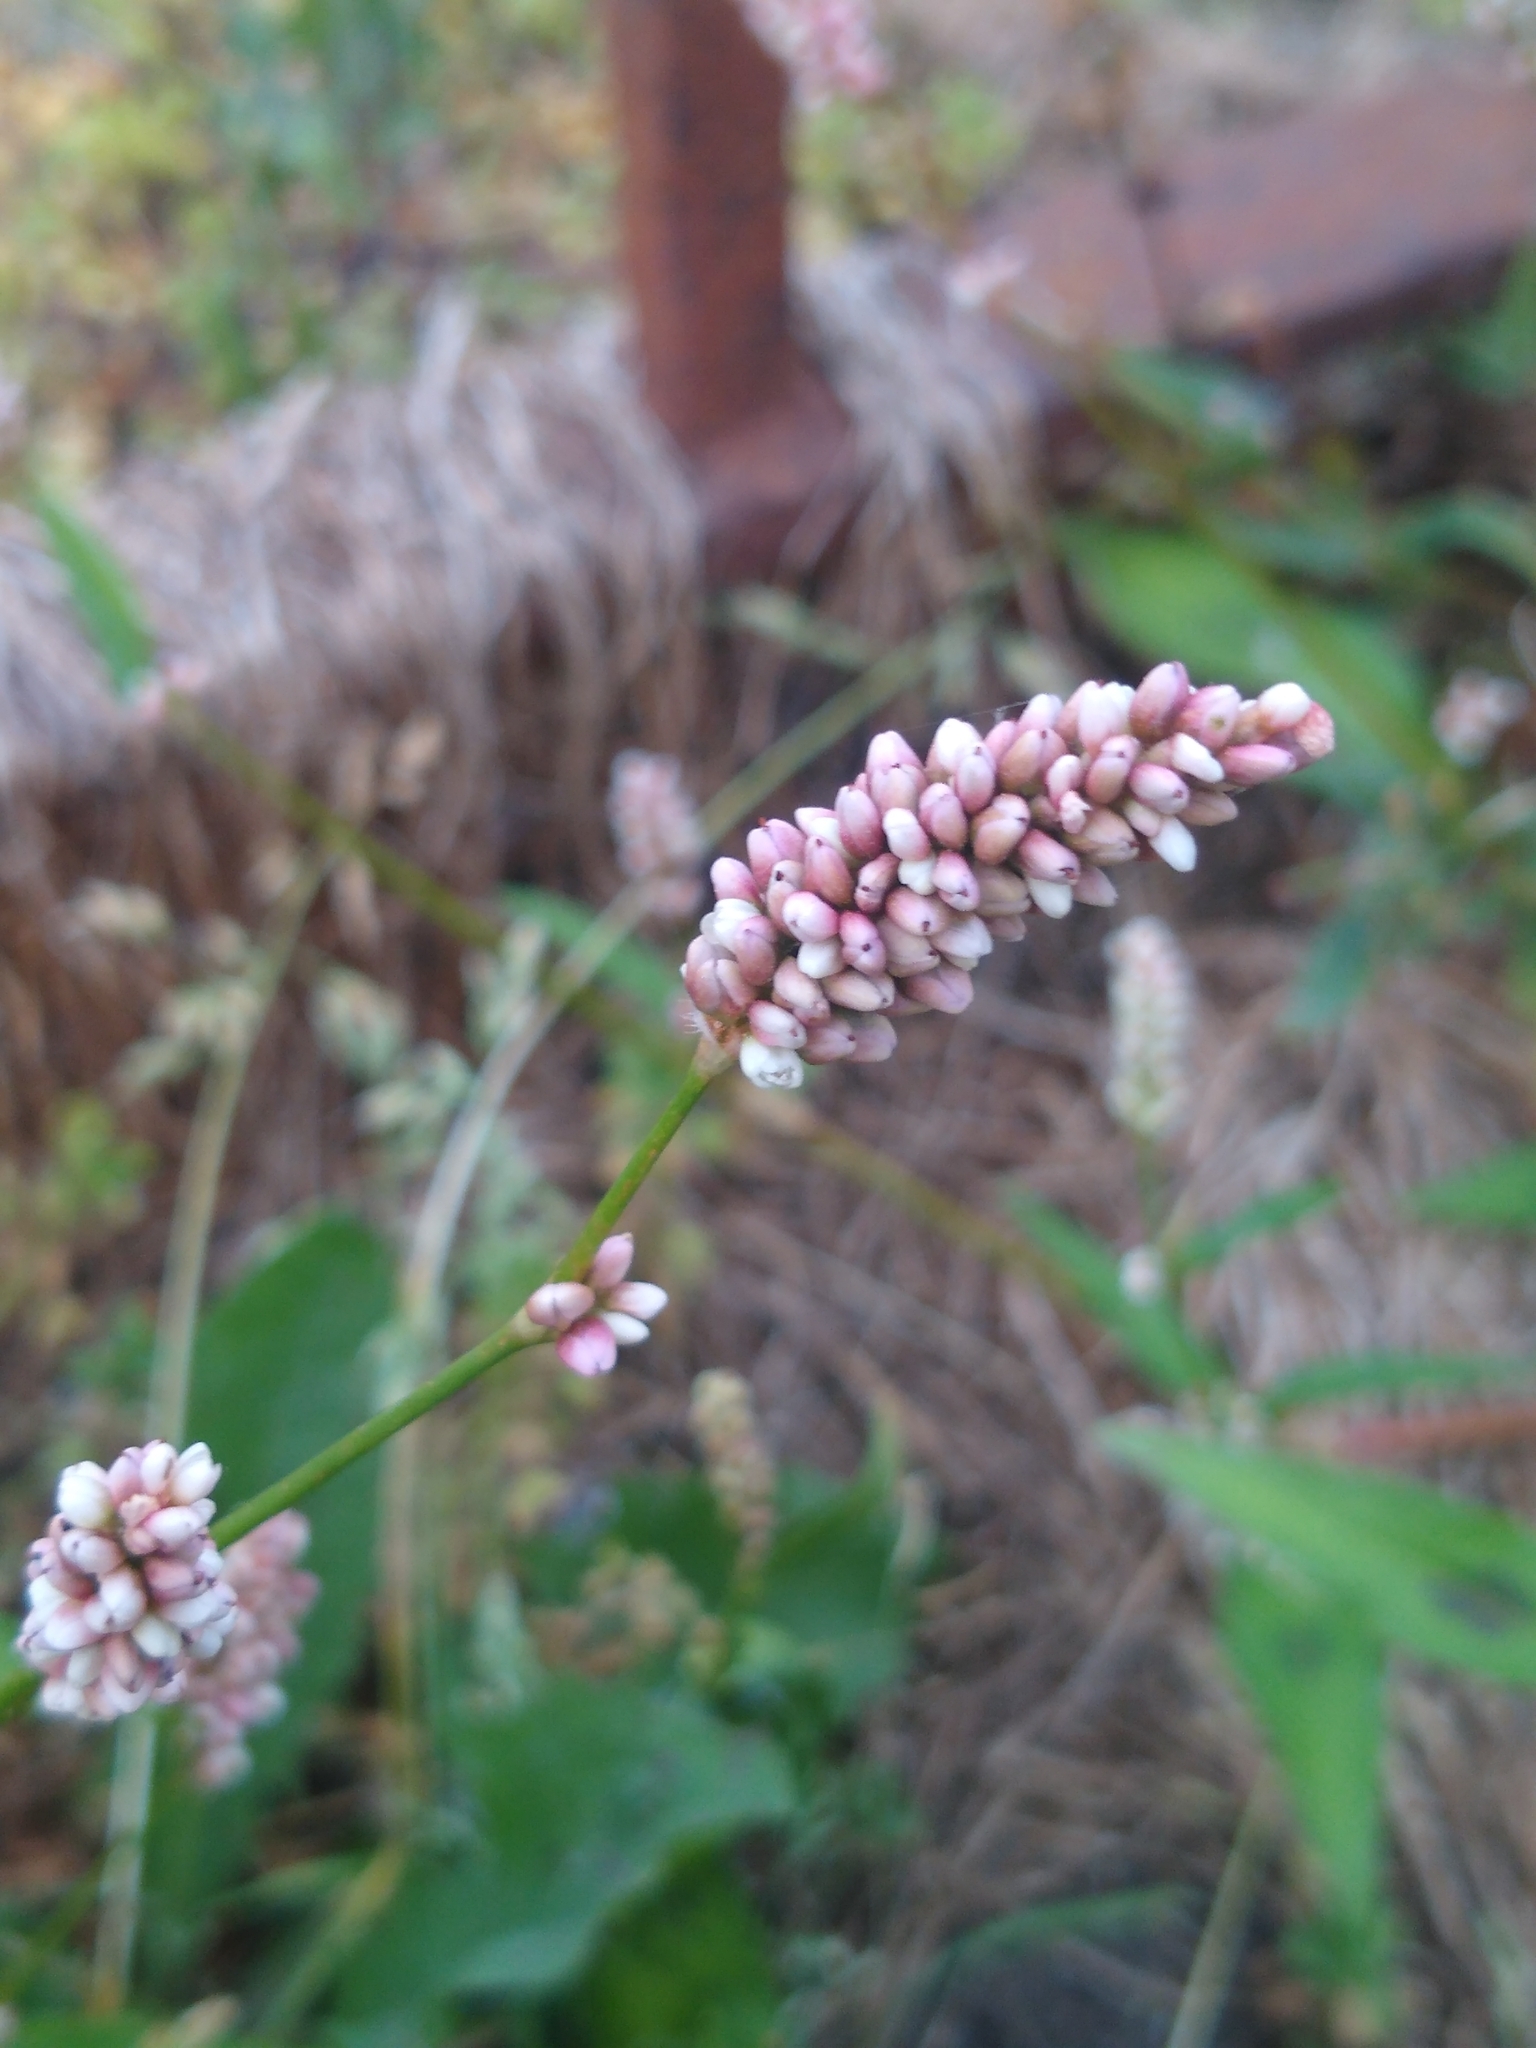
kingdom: Plantae
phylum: Tracheophyta
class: Magnoliopsida
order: Caryophyllales
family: Polygonaceae
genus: Persicaria
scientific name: Persicaria maculosa
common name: Redshank
